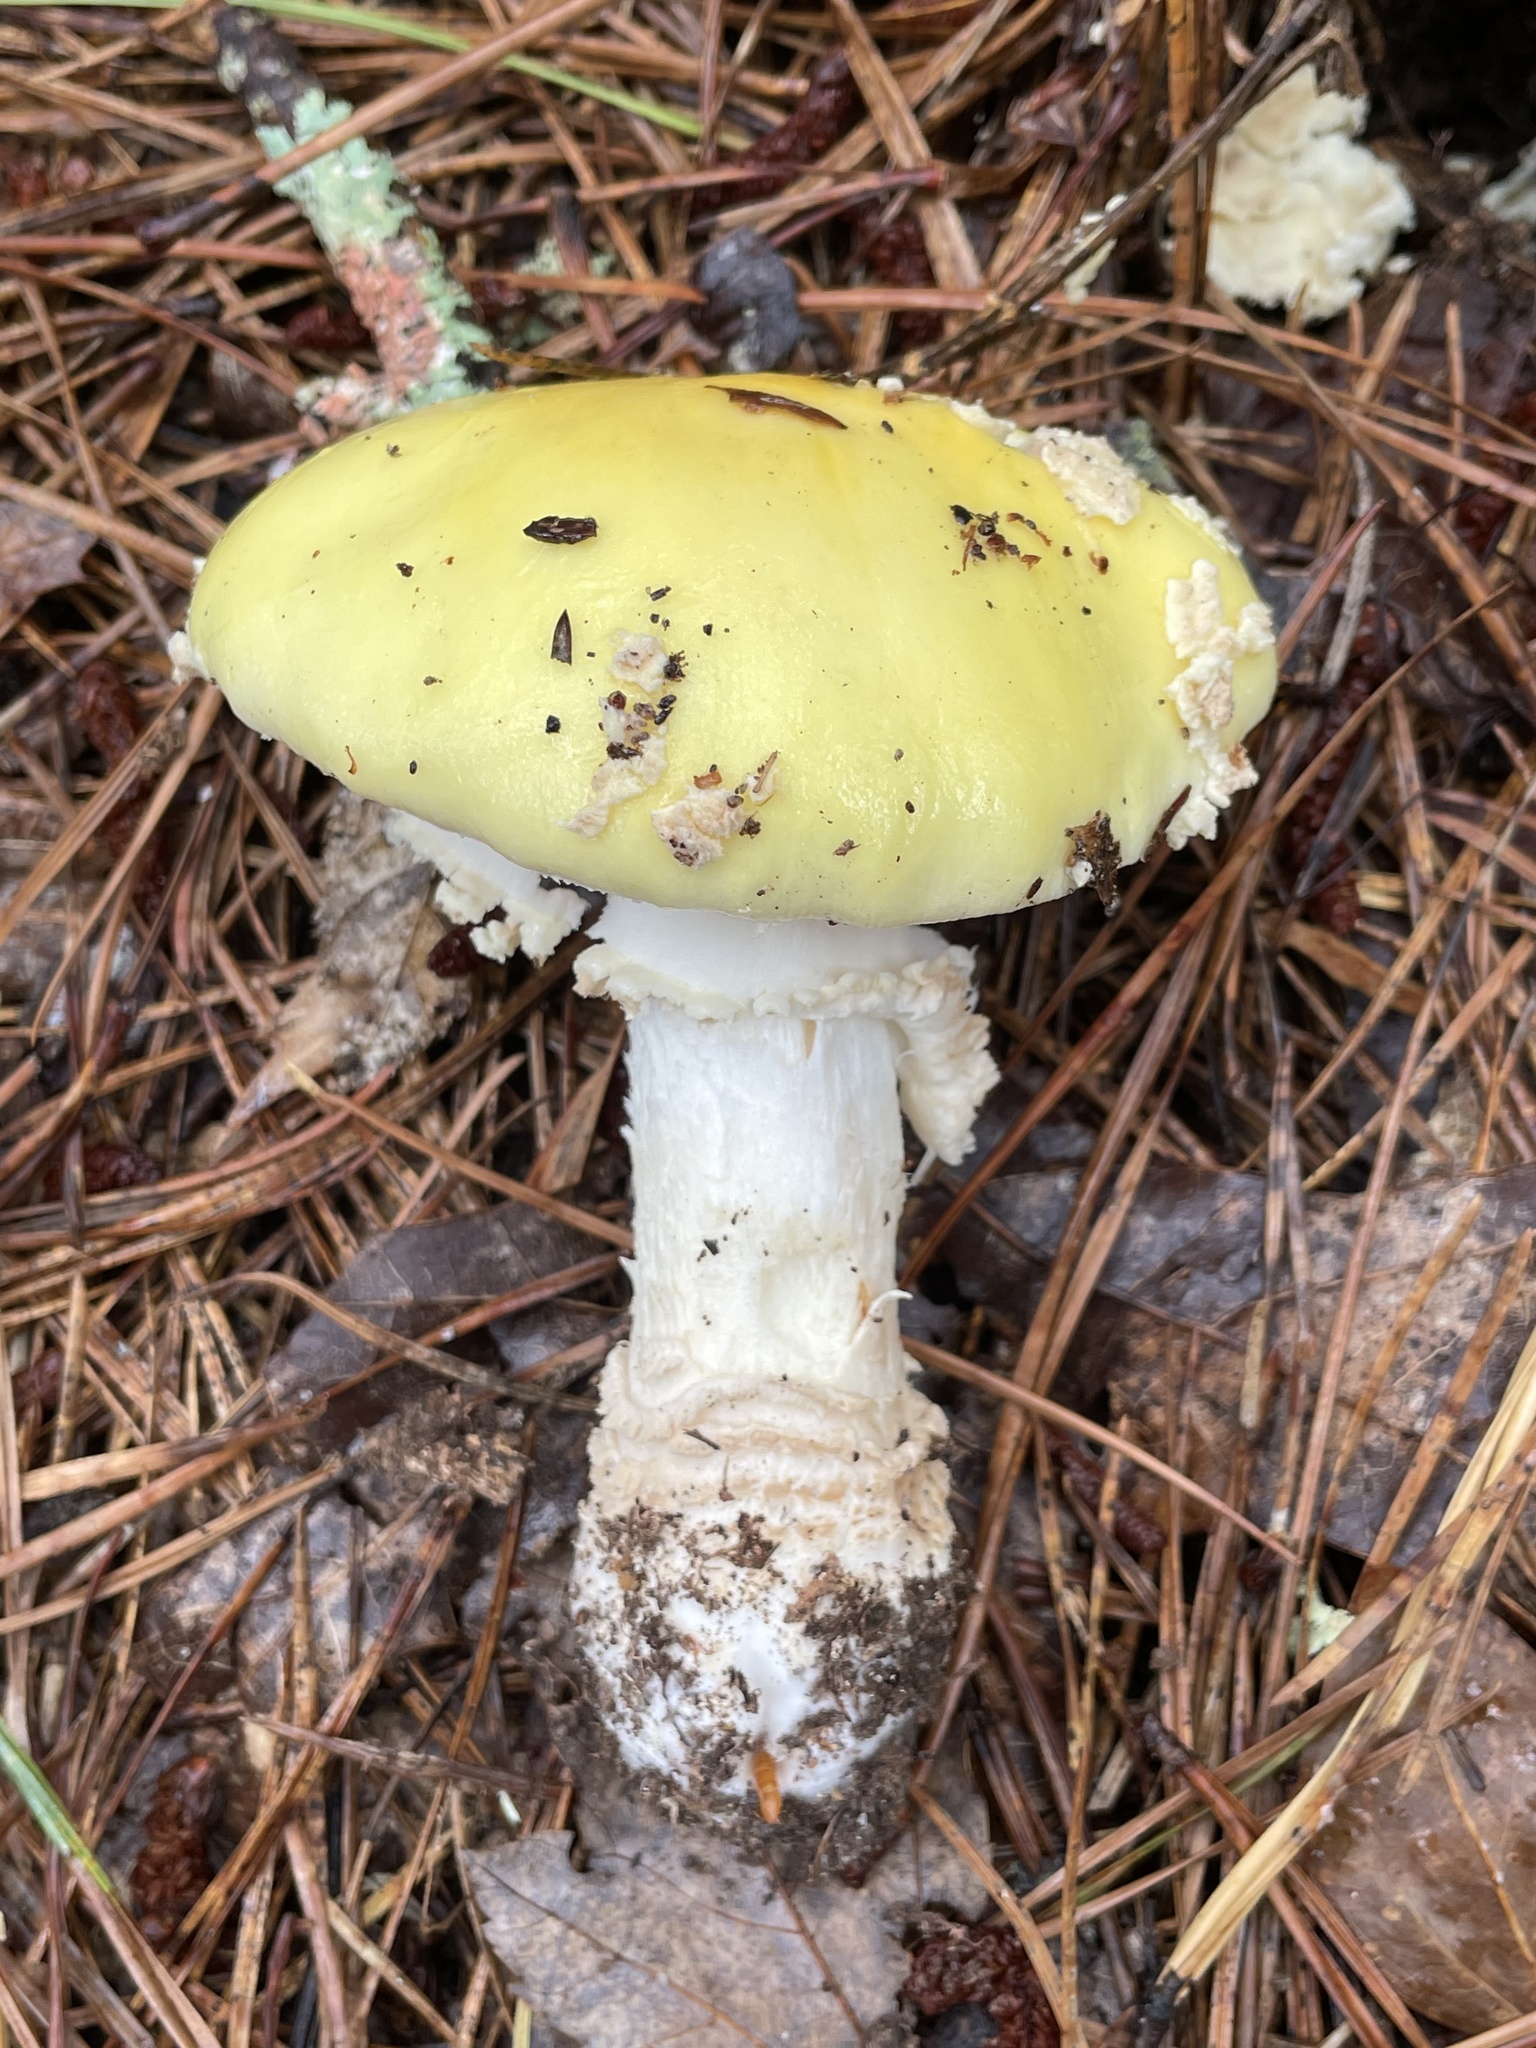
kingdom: Fungi
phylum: Basidiomycota
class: Agaricomycetes
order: Agaricales
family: Amanitaceae
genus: Amanita
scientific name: Amanita muscaria
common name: Fly agaric
